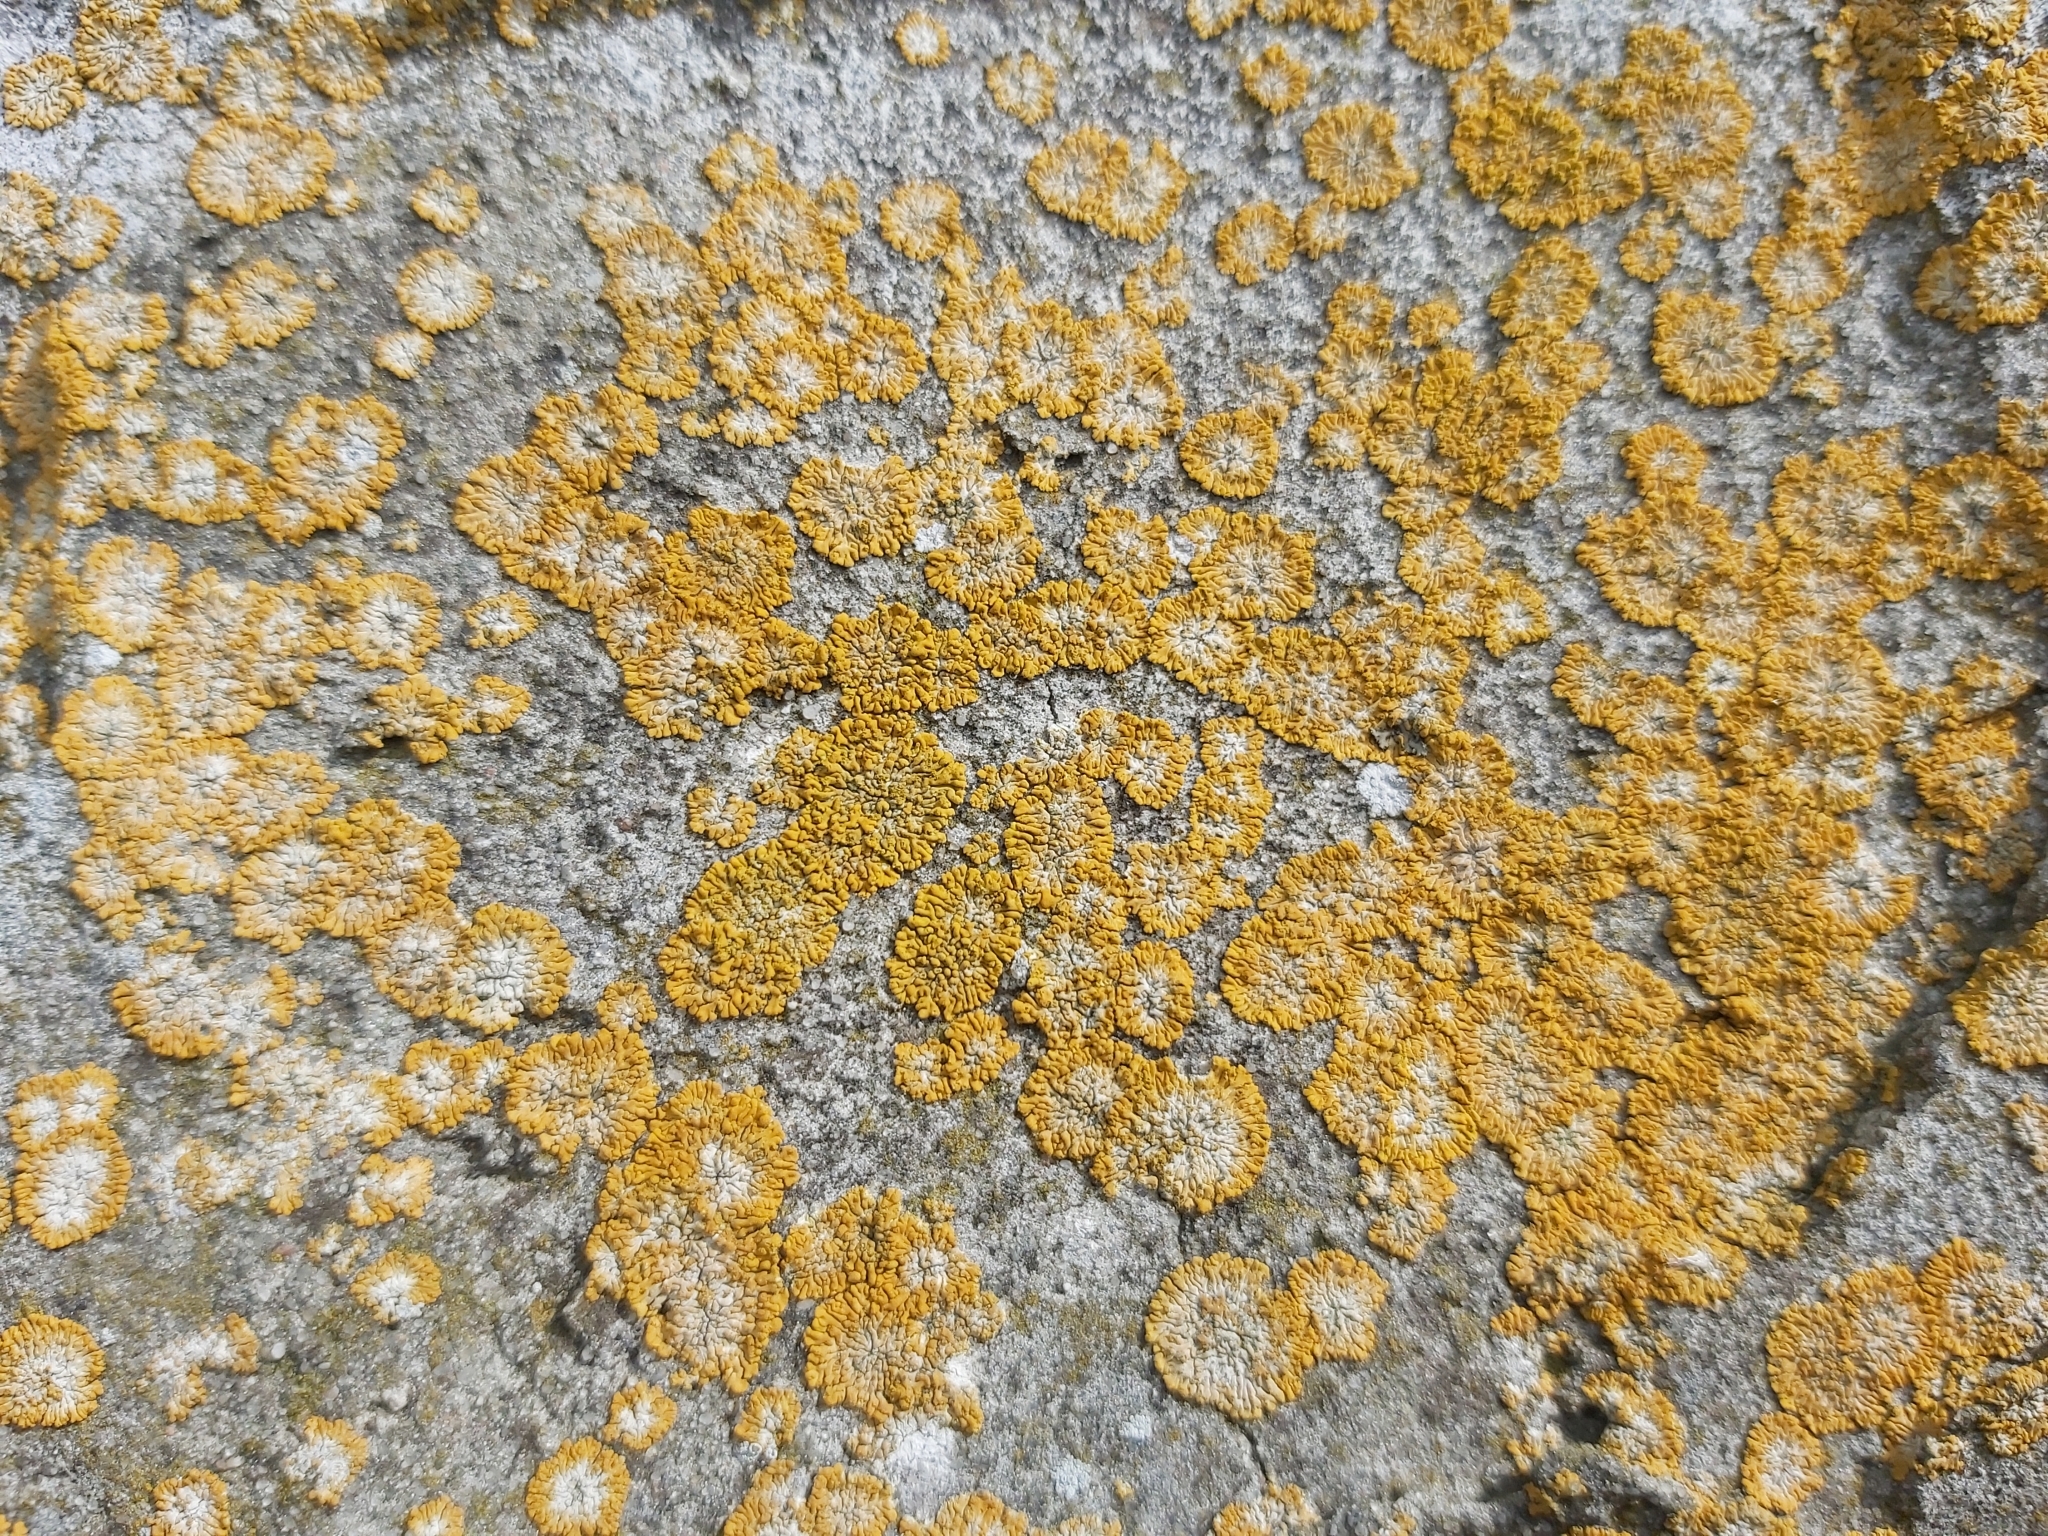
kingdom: Fungi
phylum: Ascomycota
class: Lecanoromycetes
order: Teloschistales
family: Teloschistaceae
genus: Calogaya
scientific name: Calogaya decipiens
